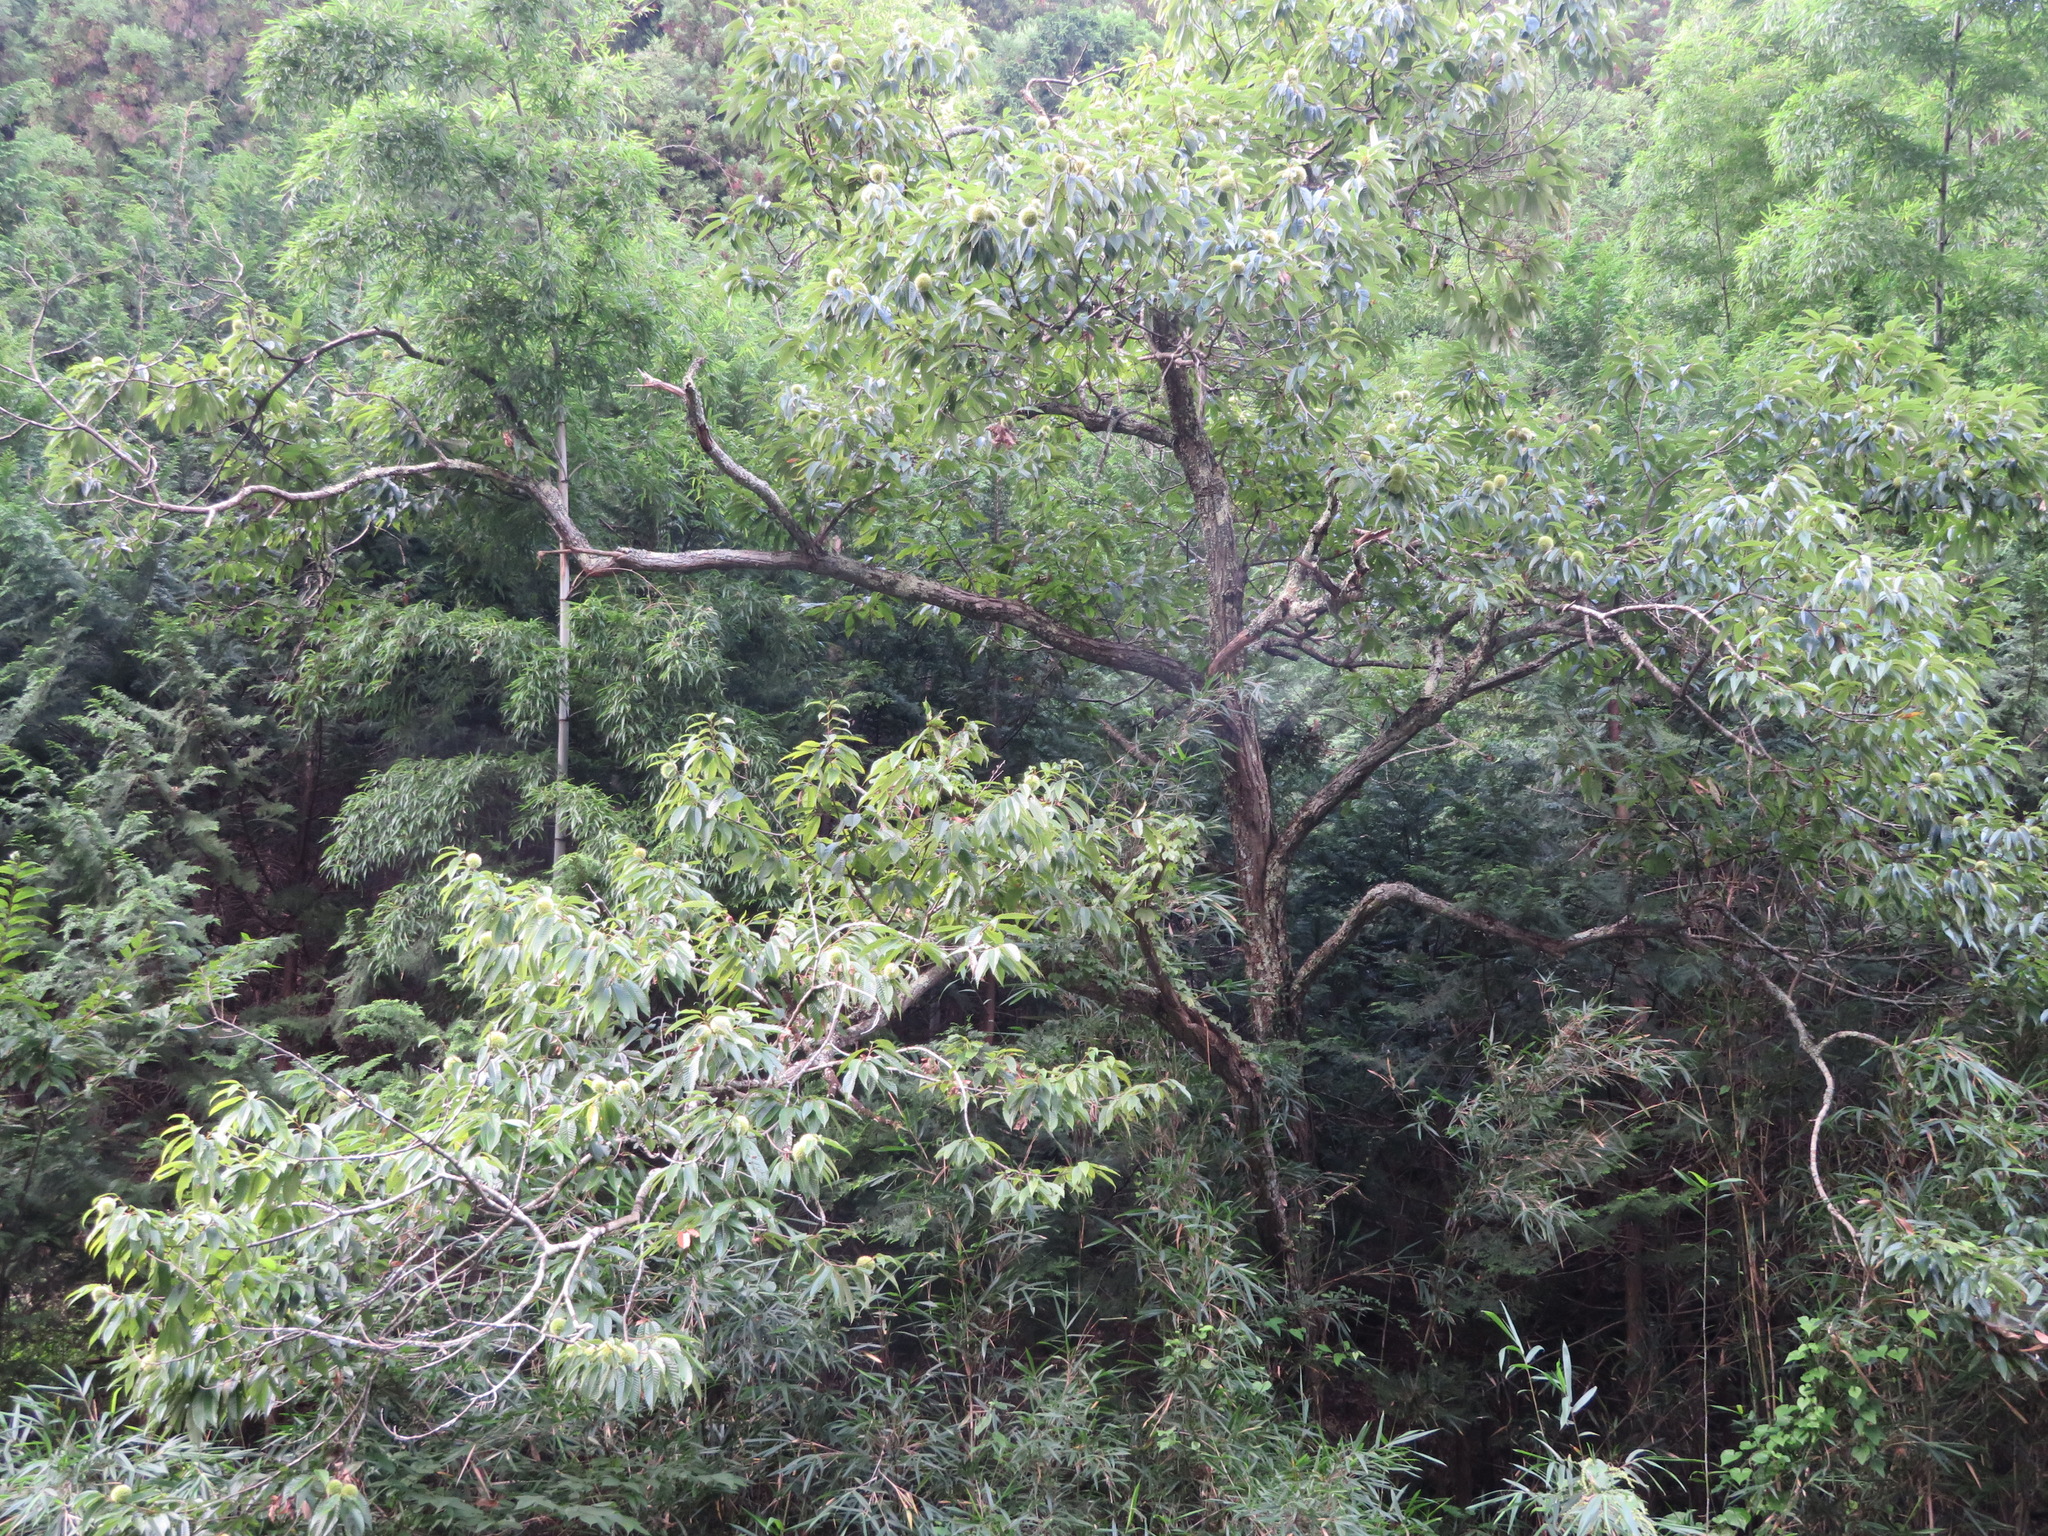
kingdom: Plantae
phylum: Tracheophyta
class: Magnoliopsida
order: Fagales
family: Fagaceae
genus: Castanea
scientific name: Castanea crenata
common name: Japanese chestnut
